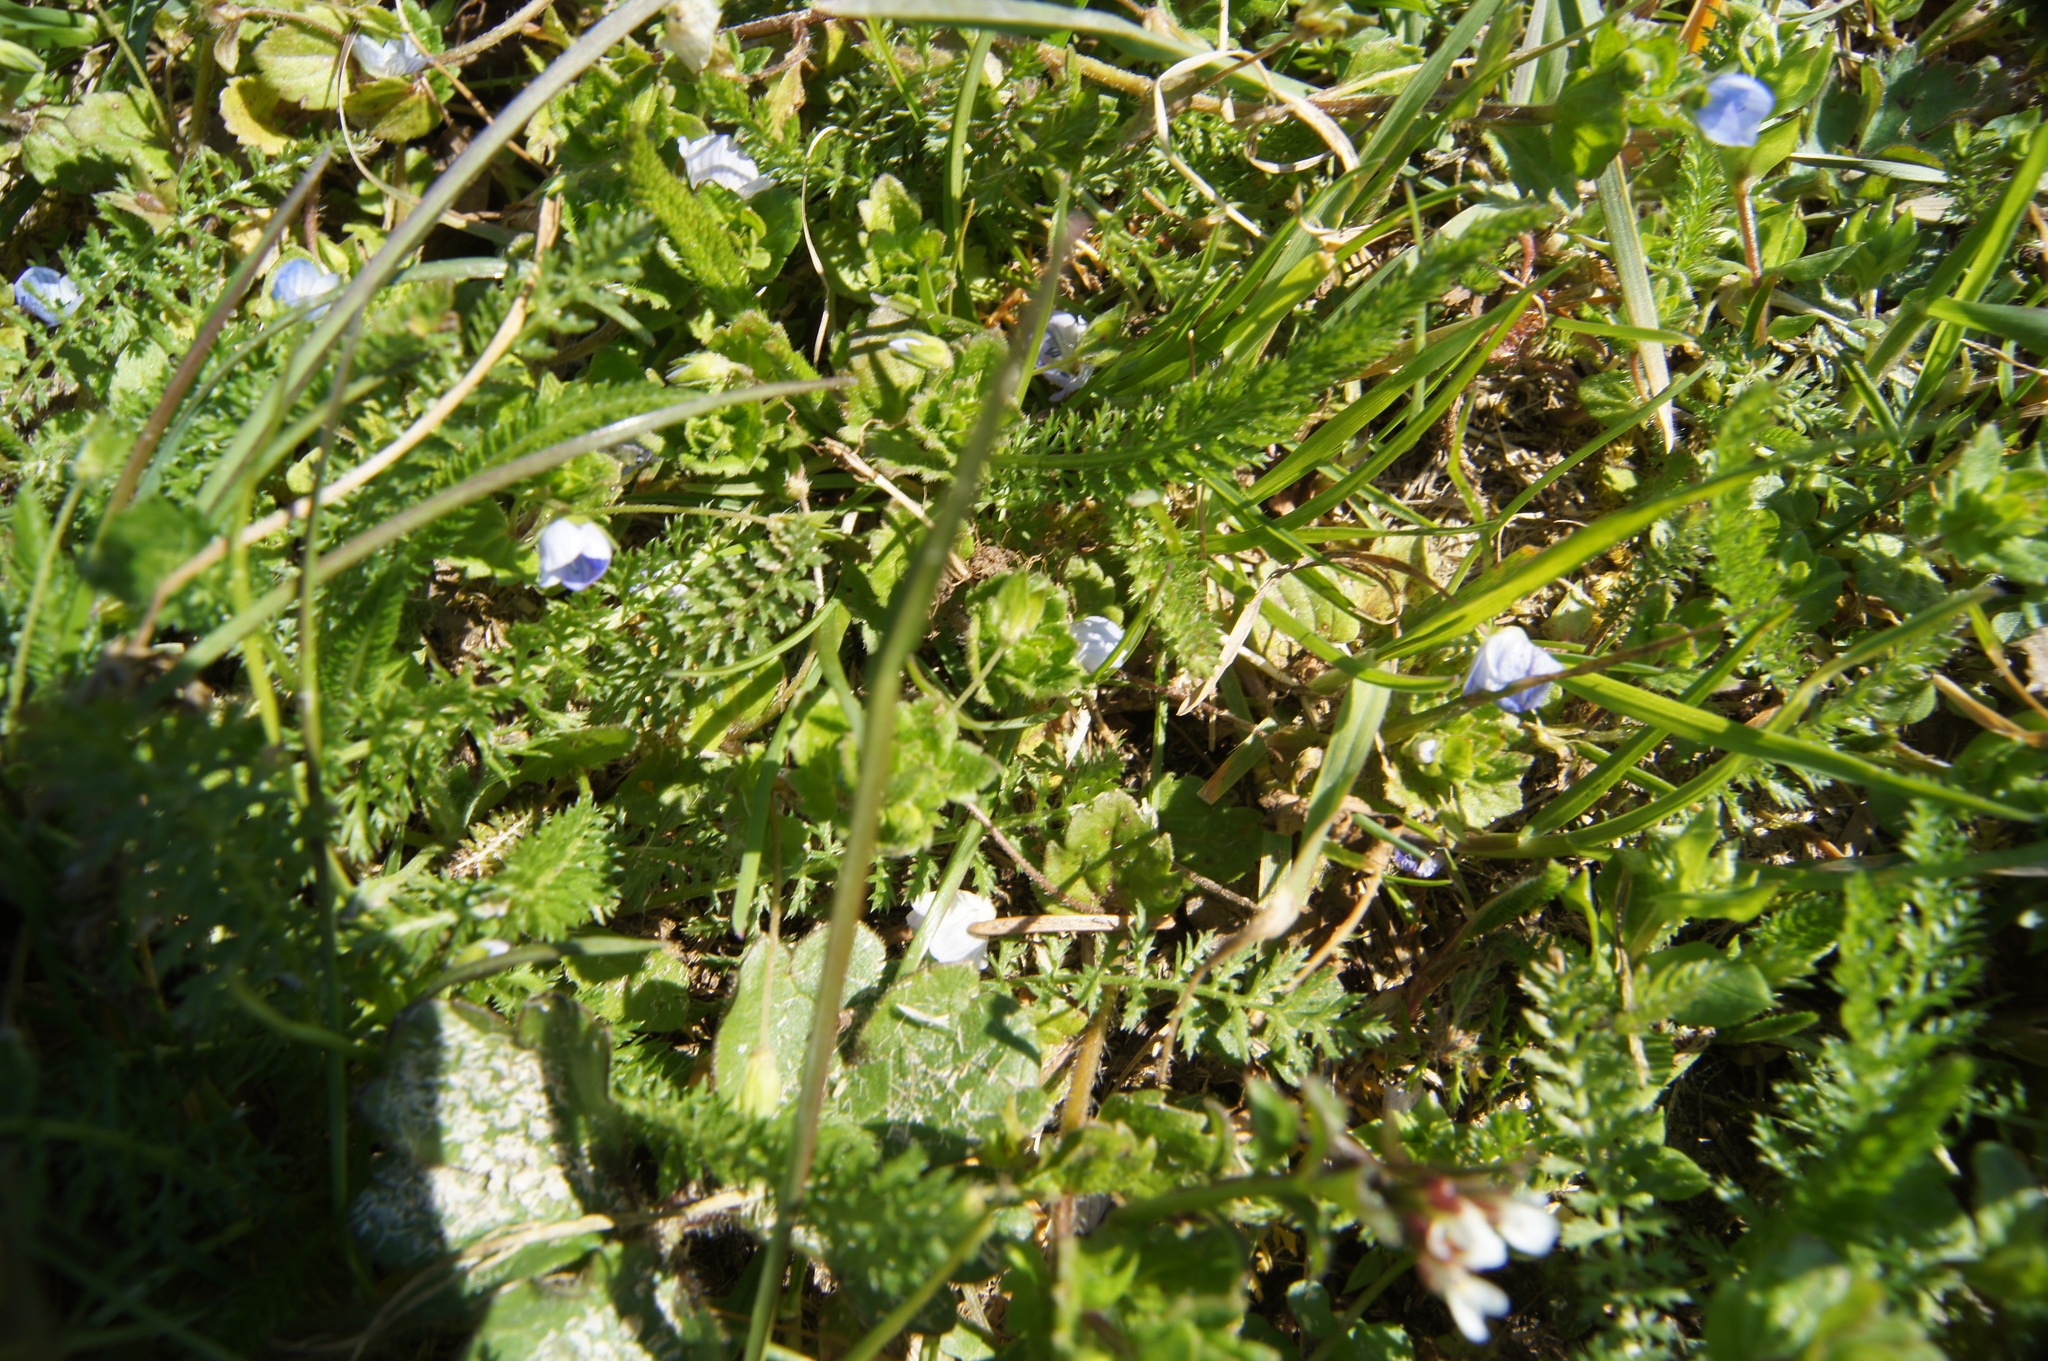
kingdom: Plantae
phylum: Tracheophyta
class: Magnoliopsida
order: Lamiales
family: Plantaginaceae
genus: Veronica
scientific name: Veronica persica
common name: Common field-speedwell
